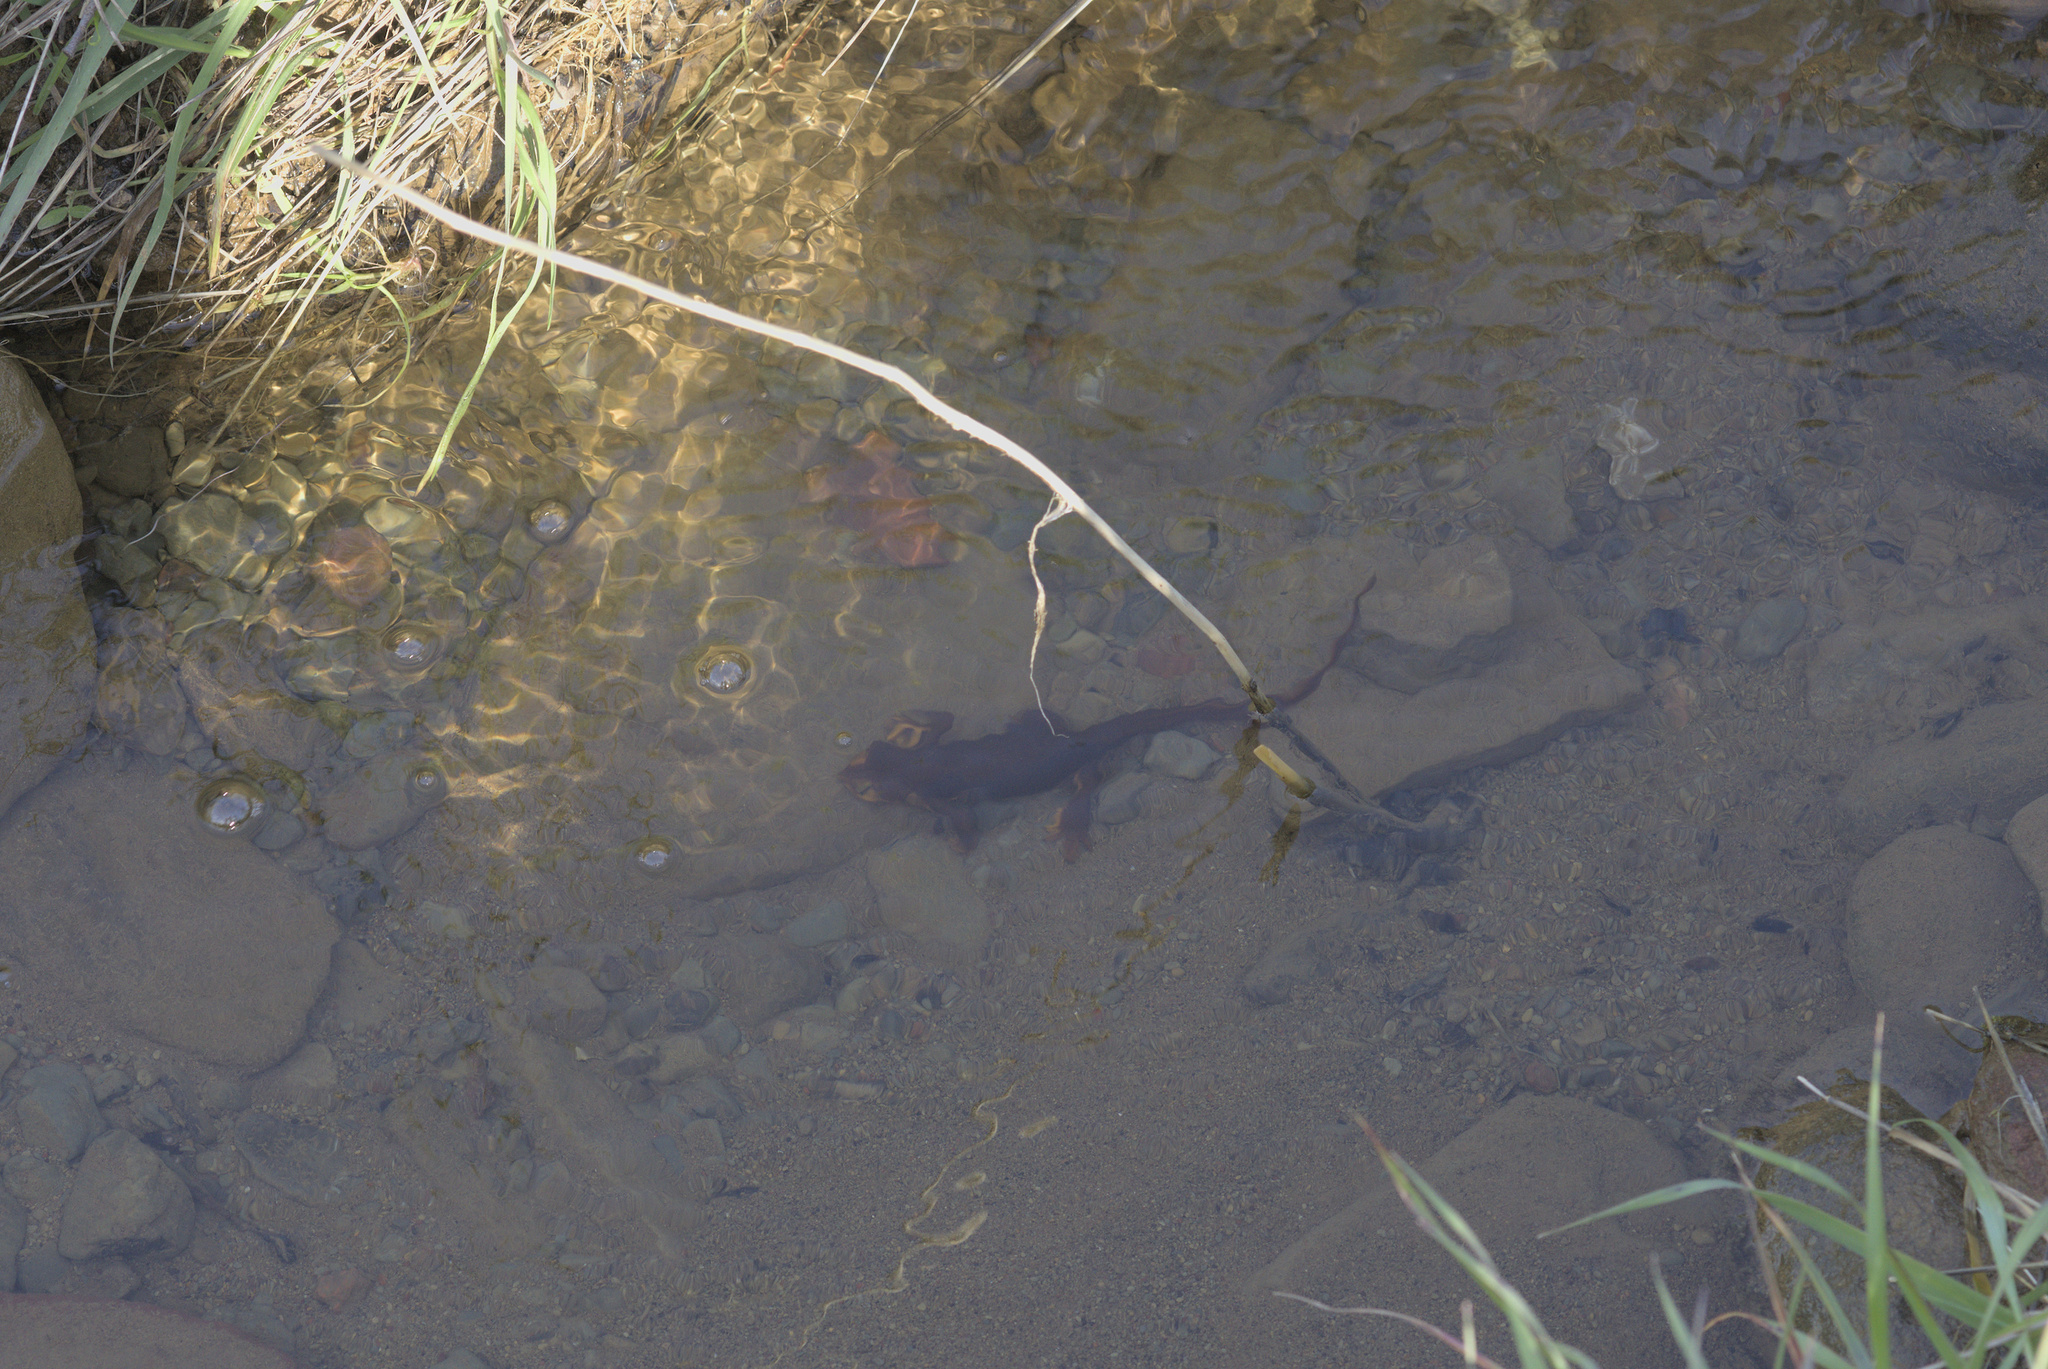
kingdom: Animalia
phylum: Chordata
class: Amphibia
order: Caudata
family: Salamandridae
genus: Taricha
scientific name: Taricha torosa
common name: California newt
